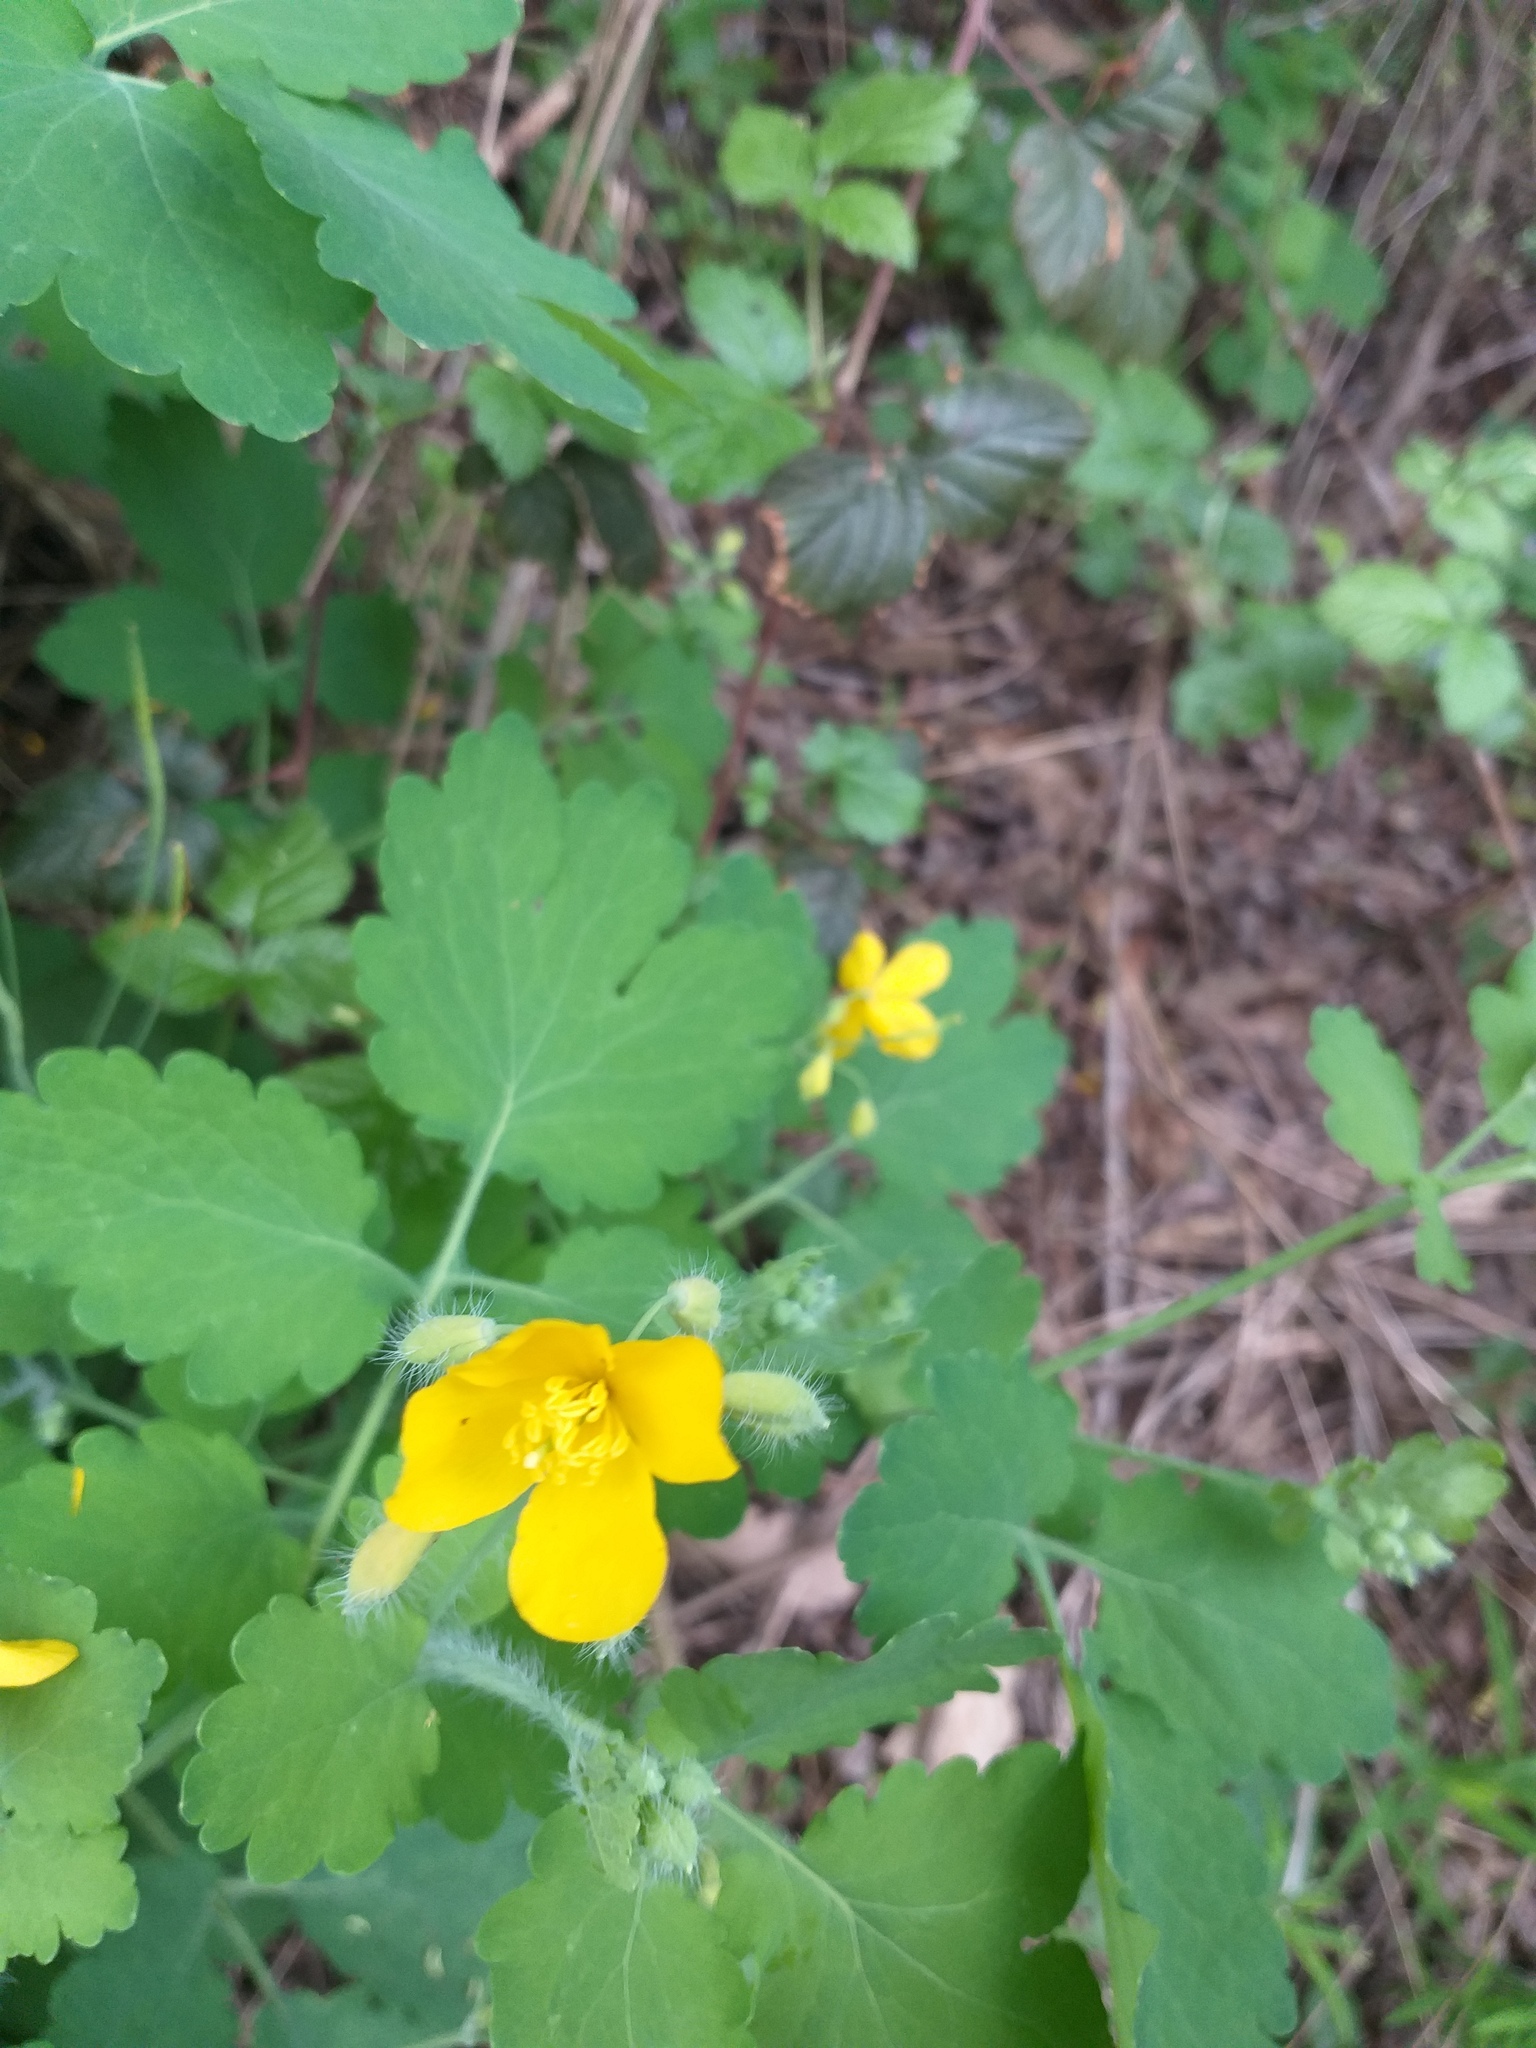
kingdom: Plantae
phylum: Tracheophyta
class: Magnoliopsida
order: Ranunculales
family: Papaveraceae
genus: Chelidonium
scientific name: Chelidonium majus
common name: Greater celandine
